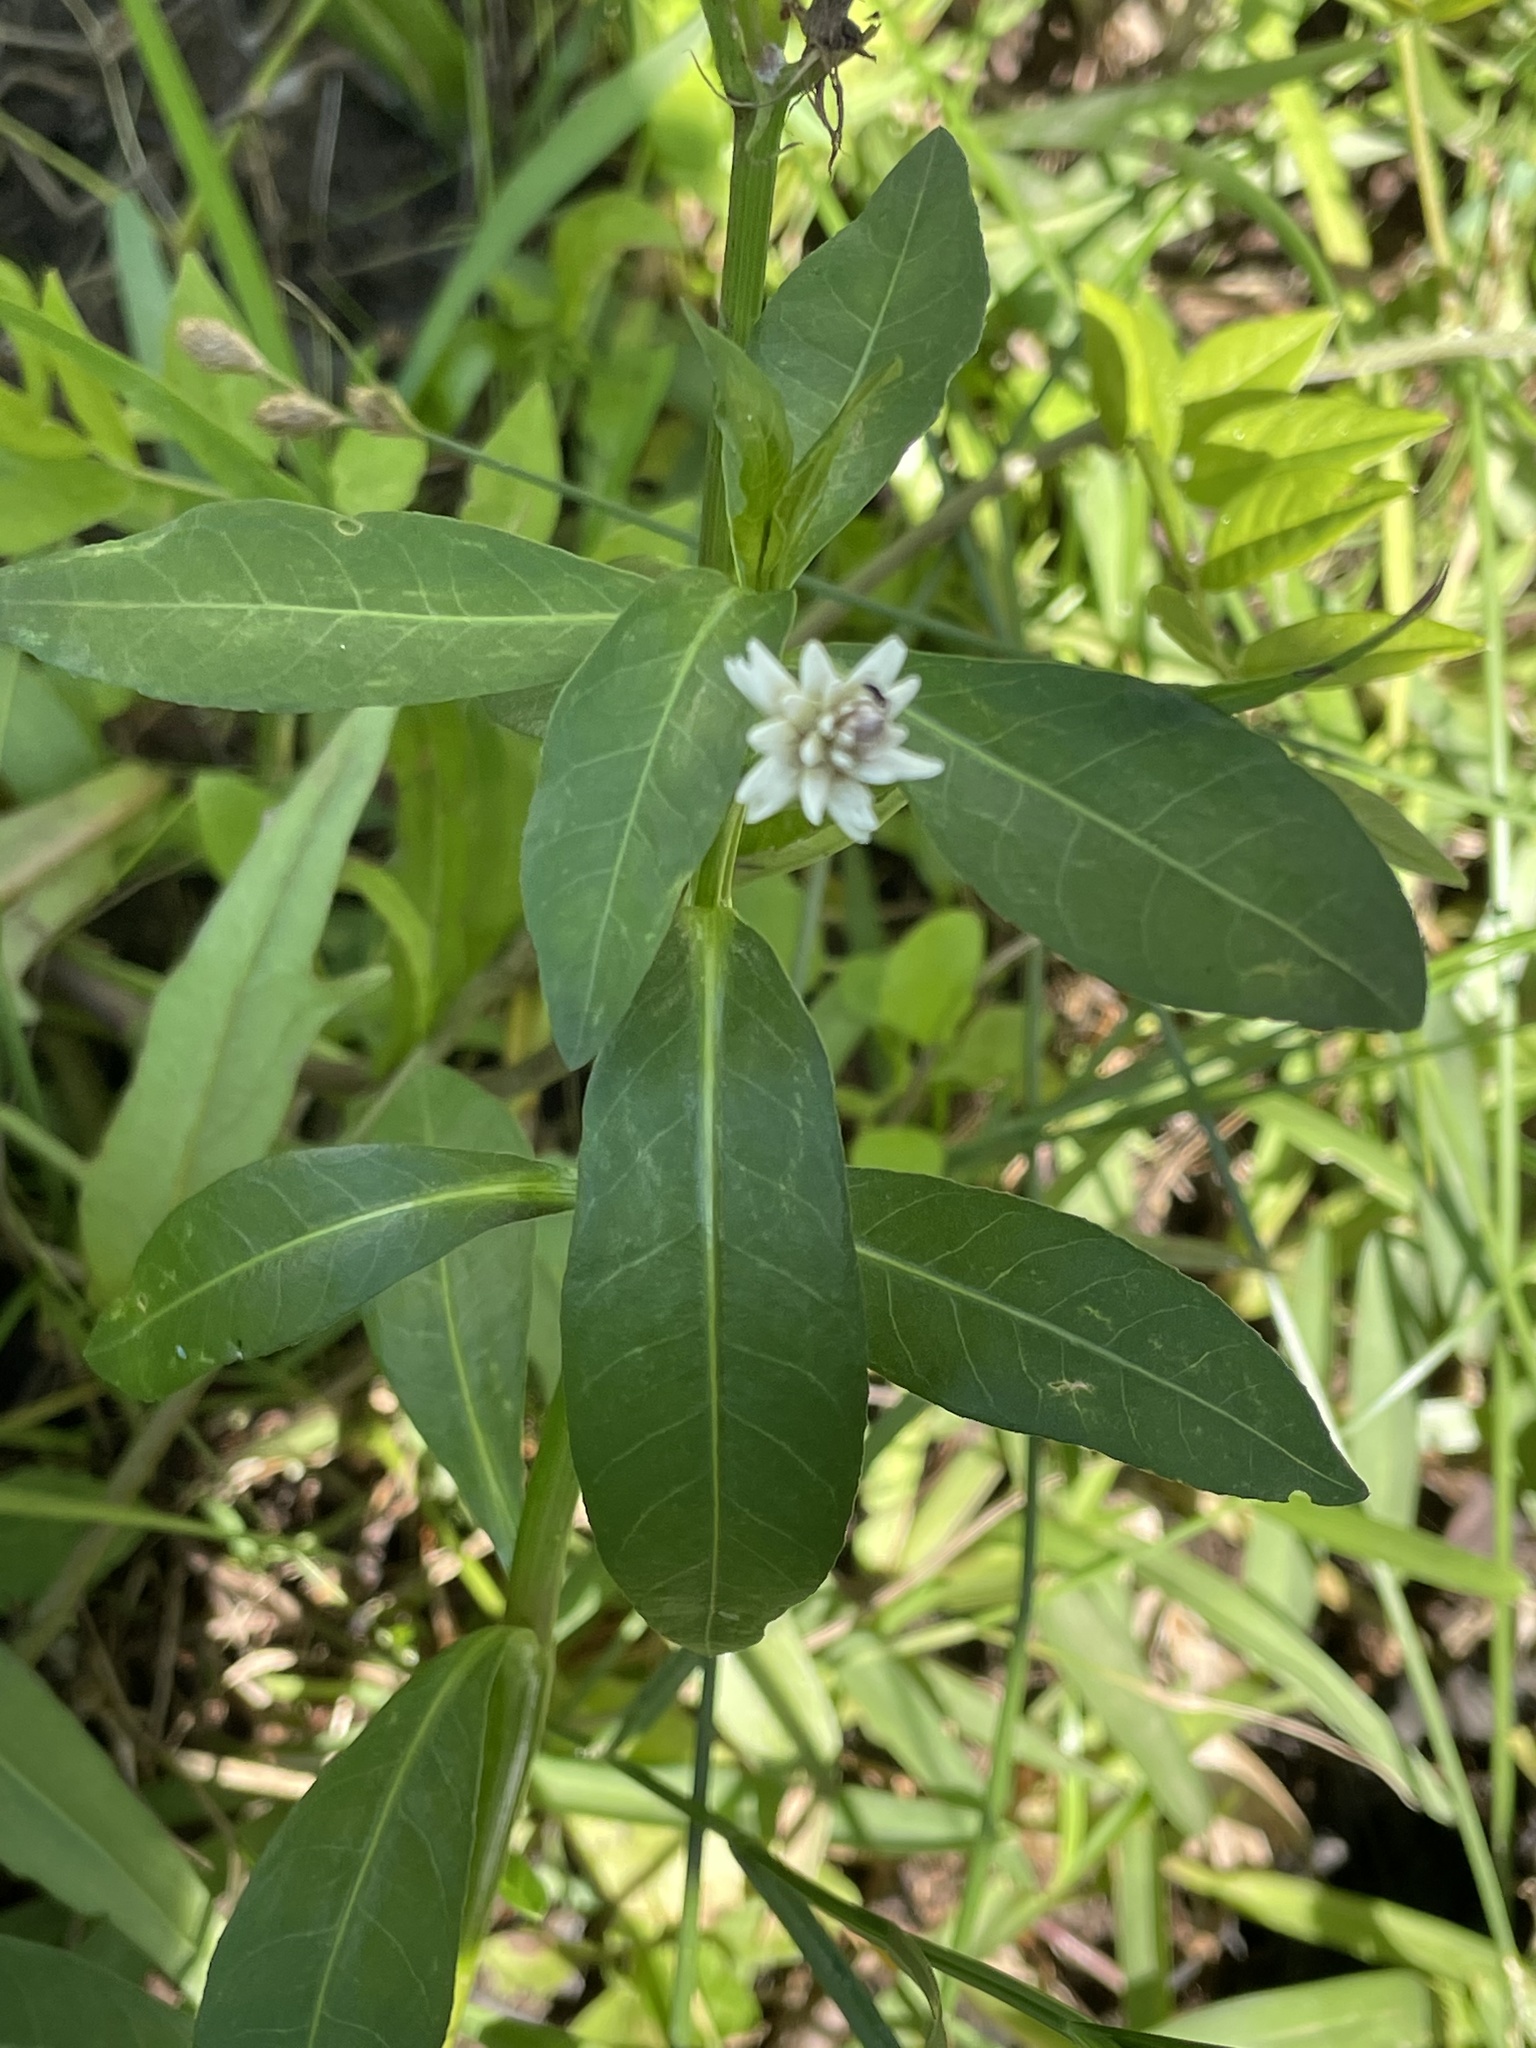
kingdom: Plantae
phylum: Tracheophyta
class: Magnoliopsida
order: Caryophyllales
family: Amaranthaceae
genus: Alternanthera
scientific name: Alternanthera philoxeroides
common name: Alligatorweed
